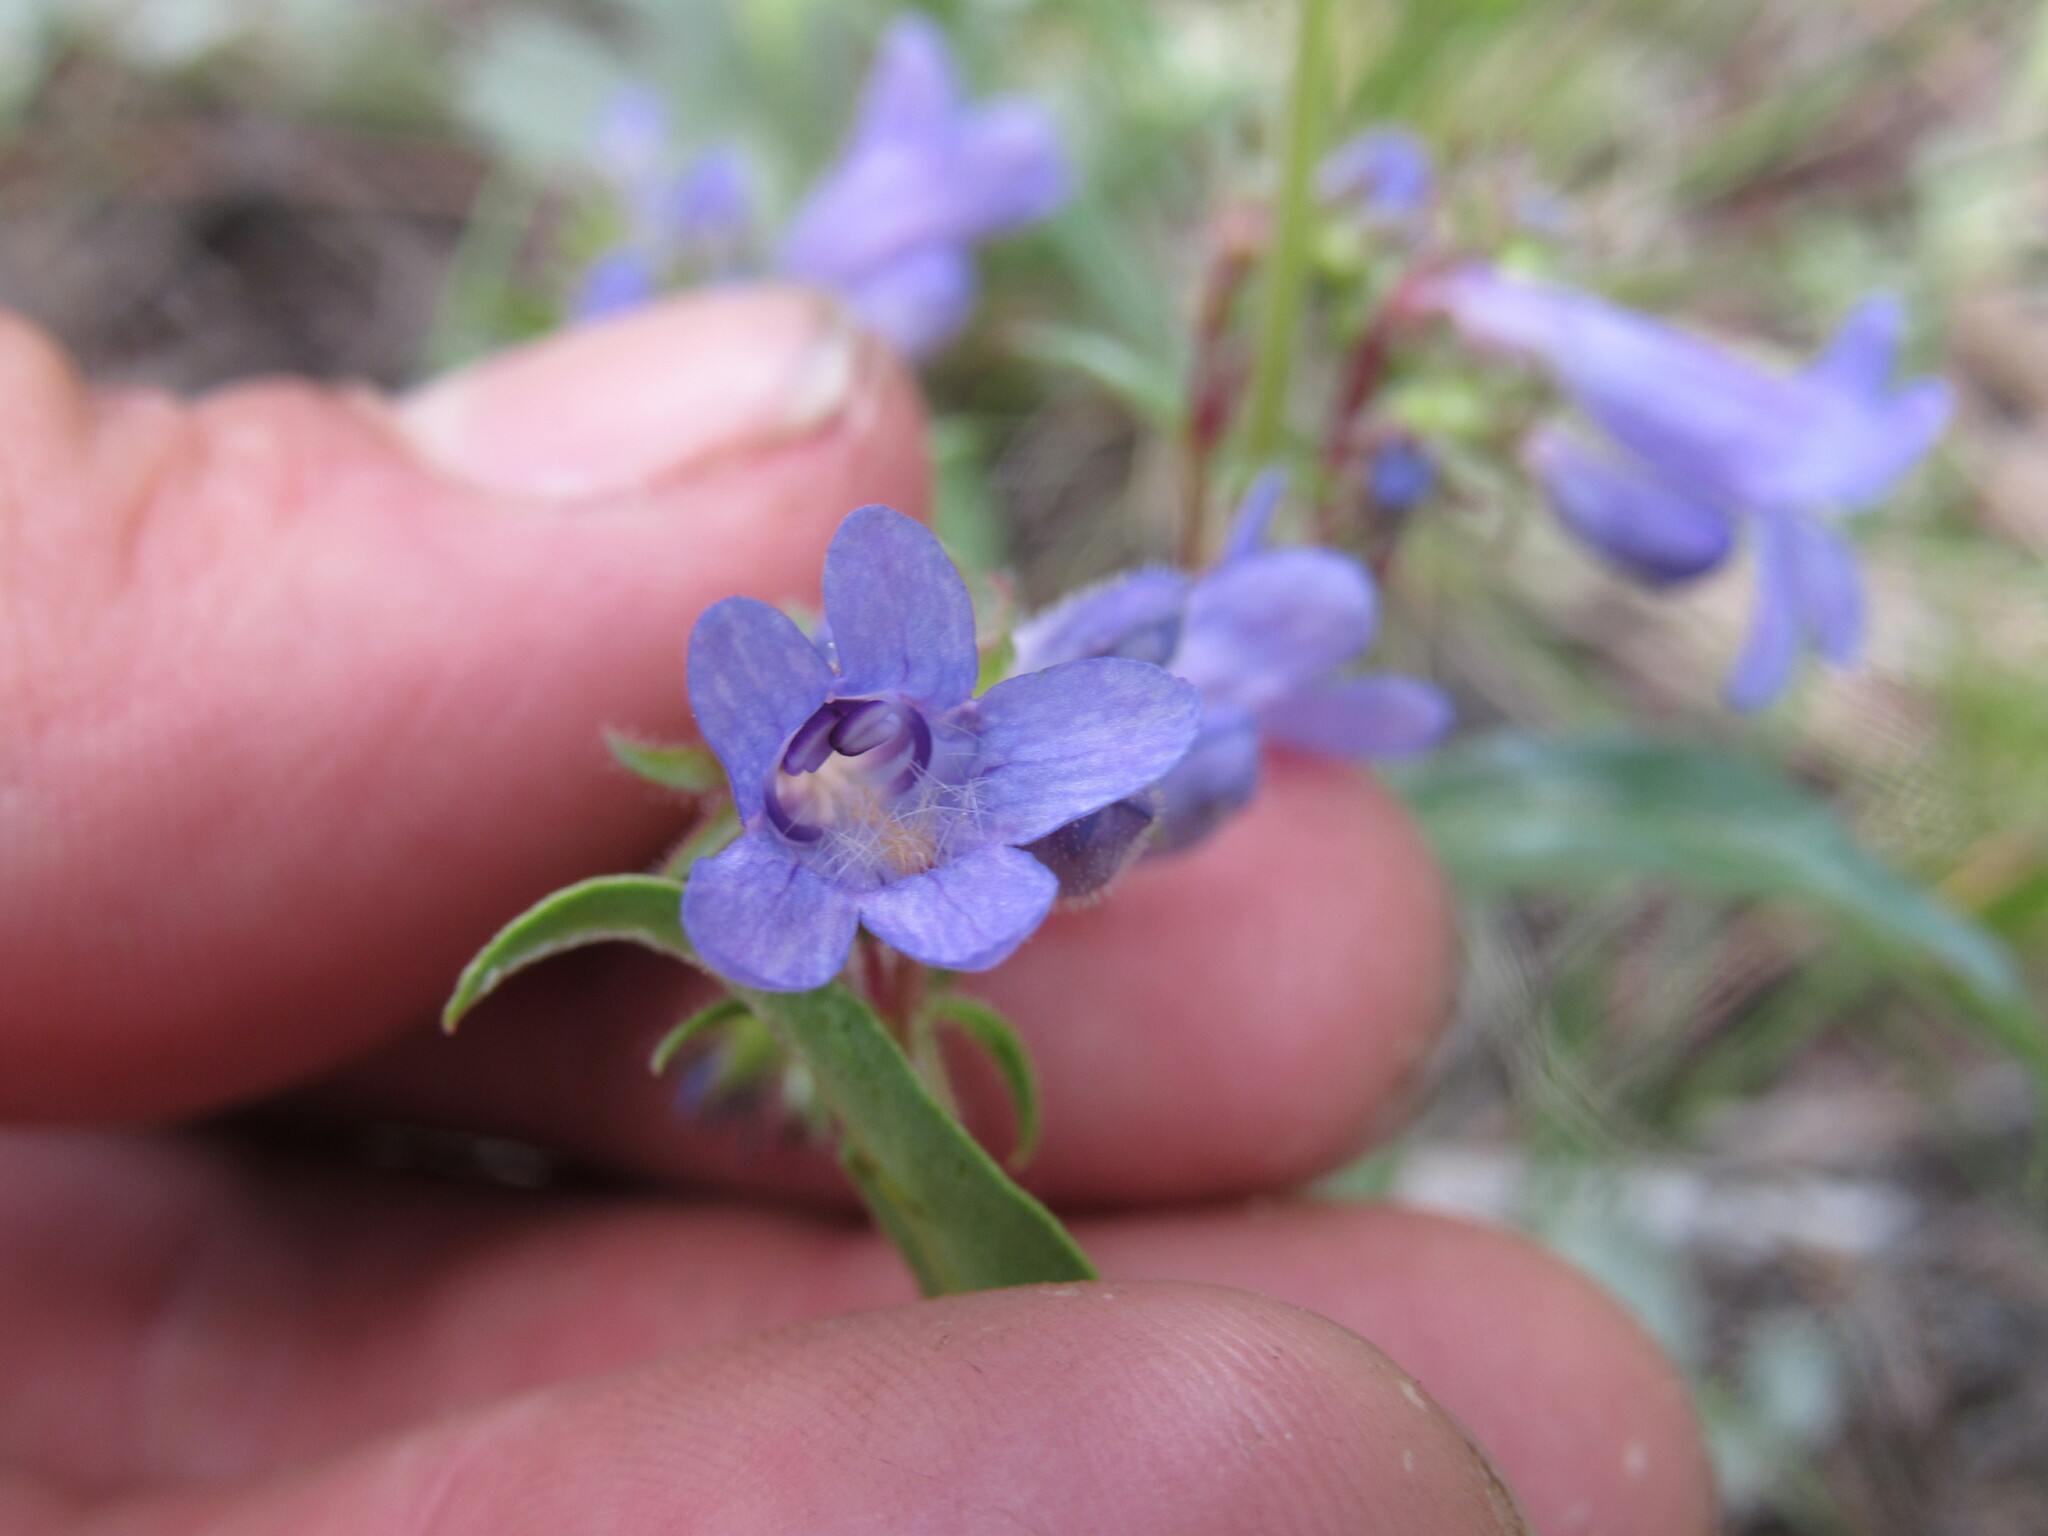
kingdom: Plantae
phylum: Tracheophyta
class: Magnoliopsida
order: Lamiales
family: Plantaginaceae
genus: Penstemon
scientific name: Penstemon virens
